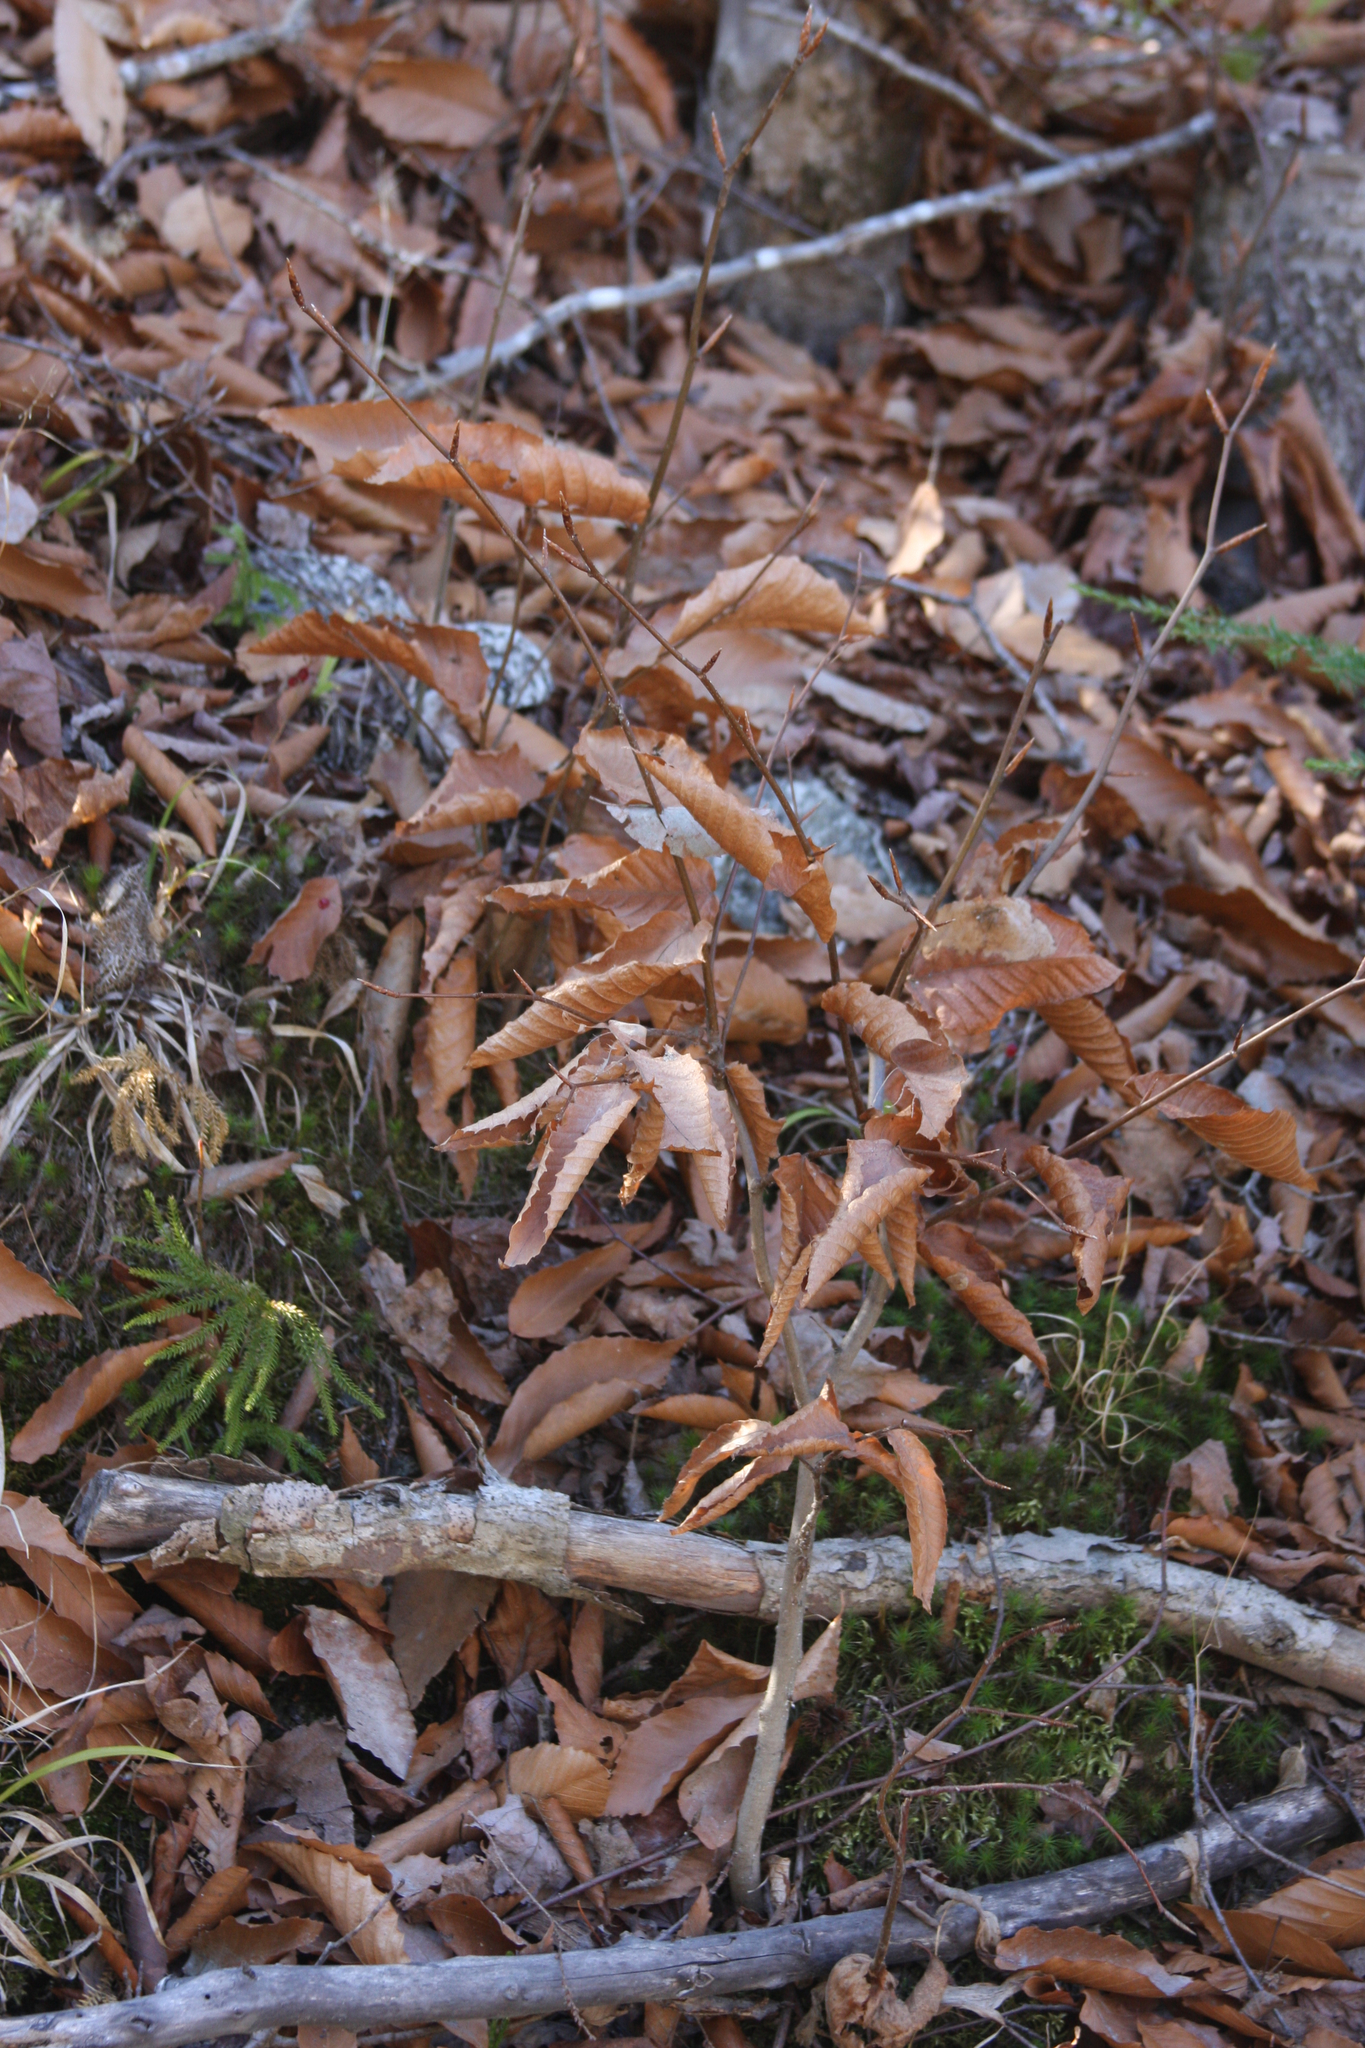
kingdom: Plantae
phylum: Tracheophyta
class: Magnoliopsida
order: Fagales
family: Fagaceae
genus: Fagus
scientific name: Fagus grandifolia
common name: American beech
